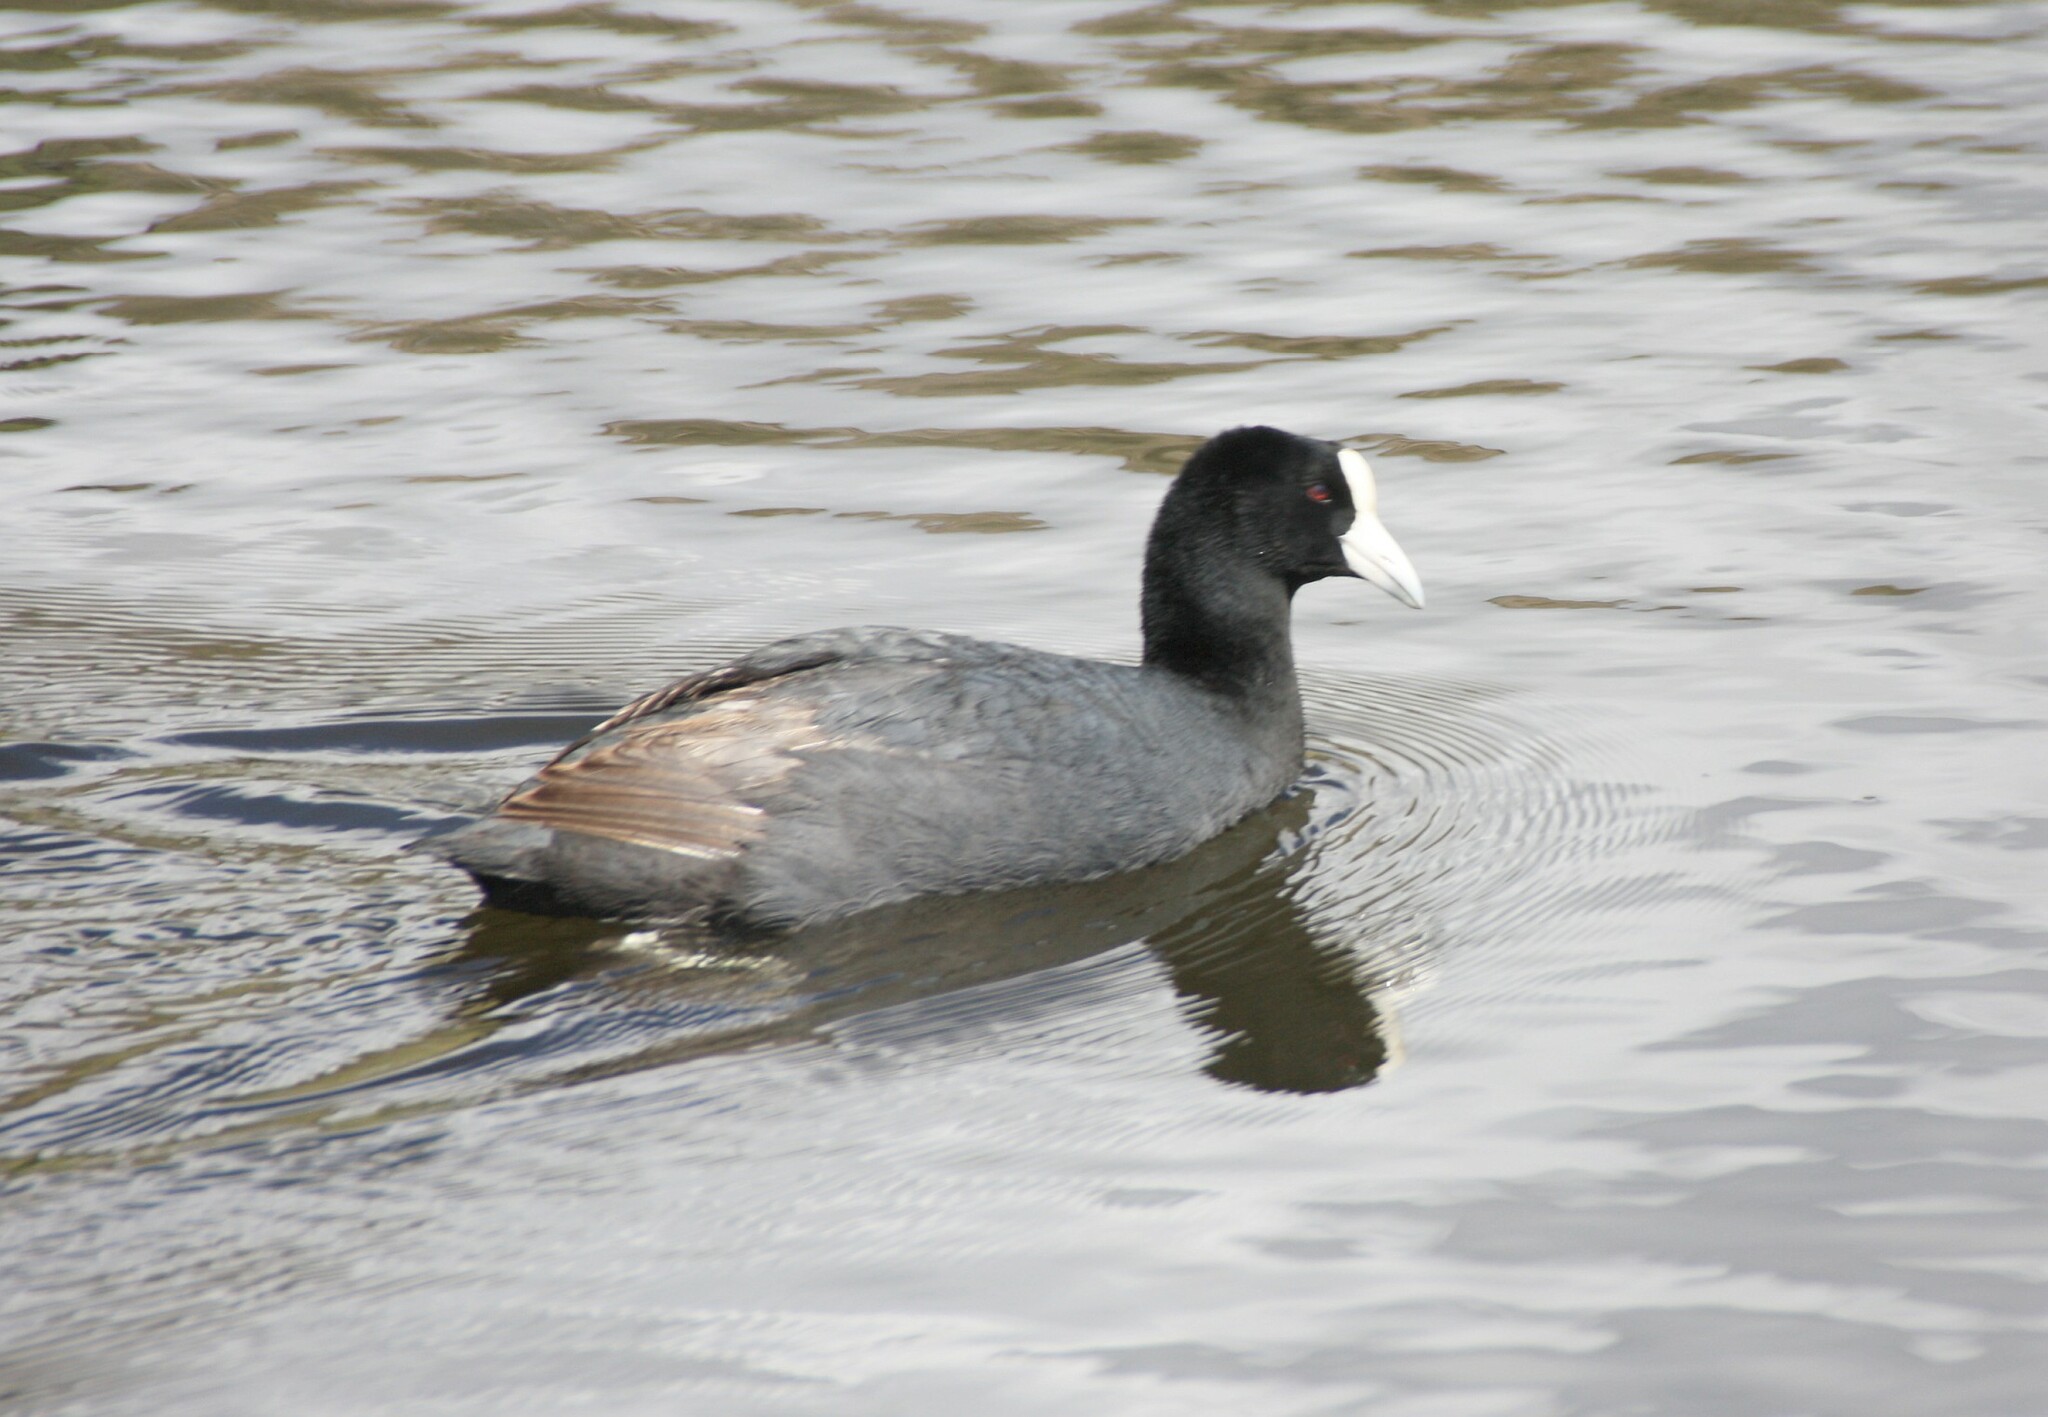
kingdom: Animalia
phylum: Chordata
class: Aves
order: Gruiformes
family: Rallidae
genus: Fulica
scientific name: Fulica ardesiaca
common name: Andean coot
